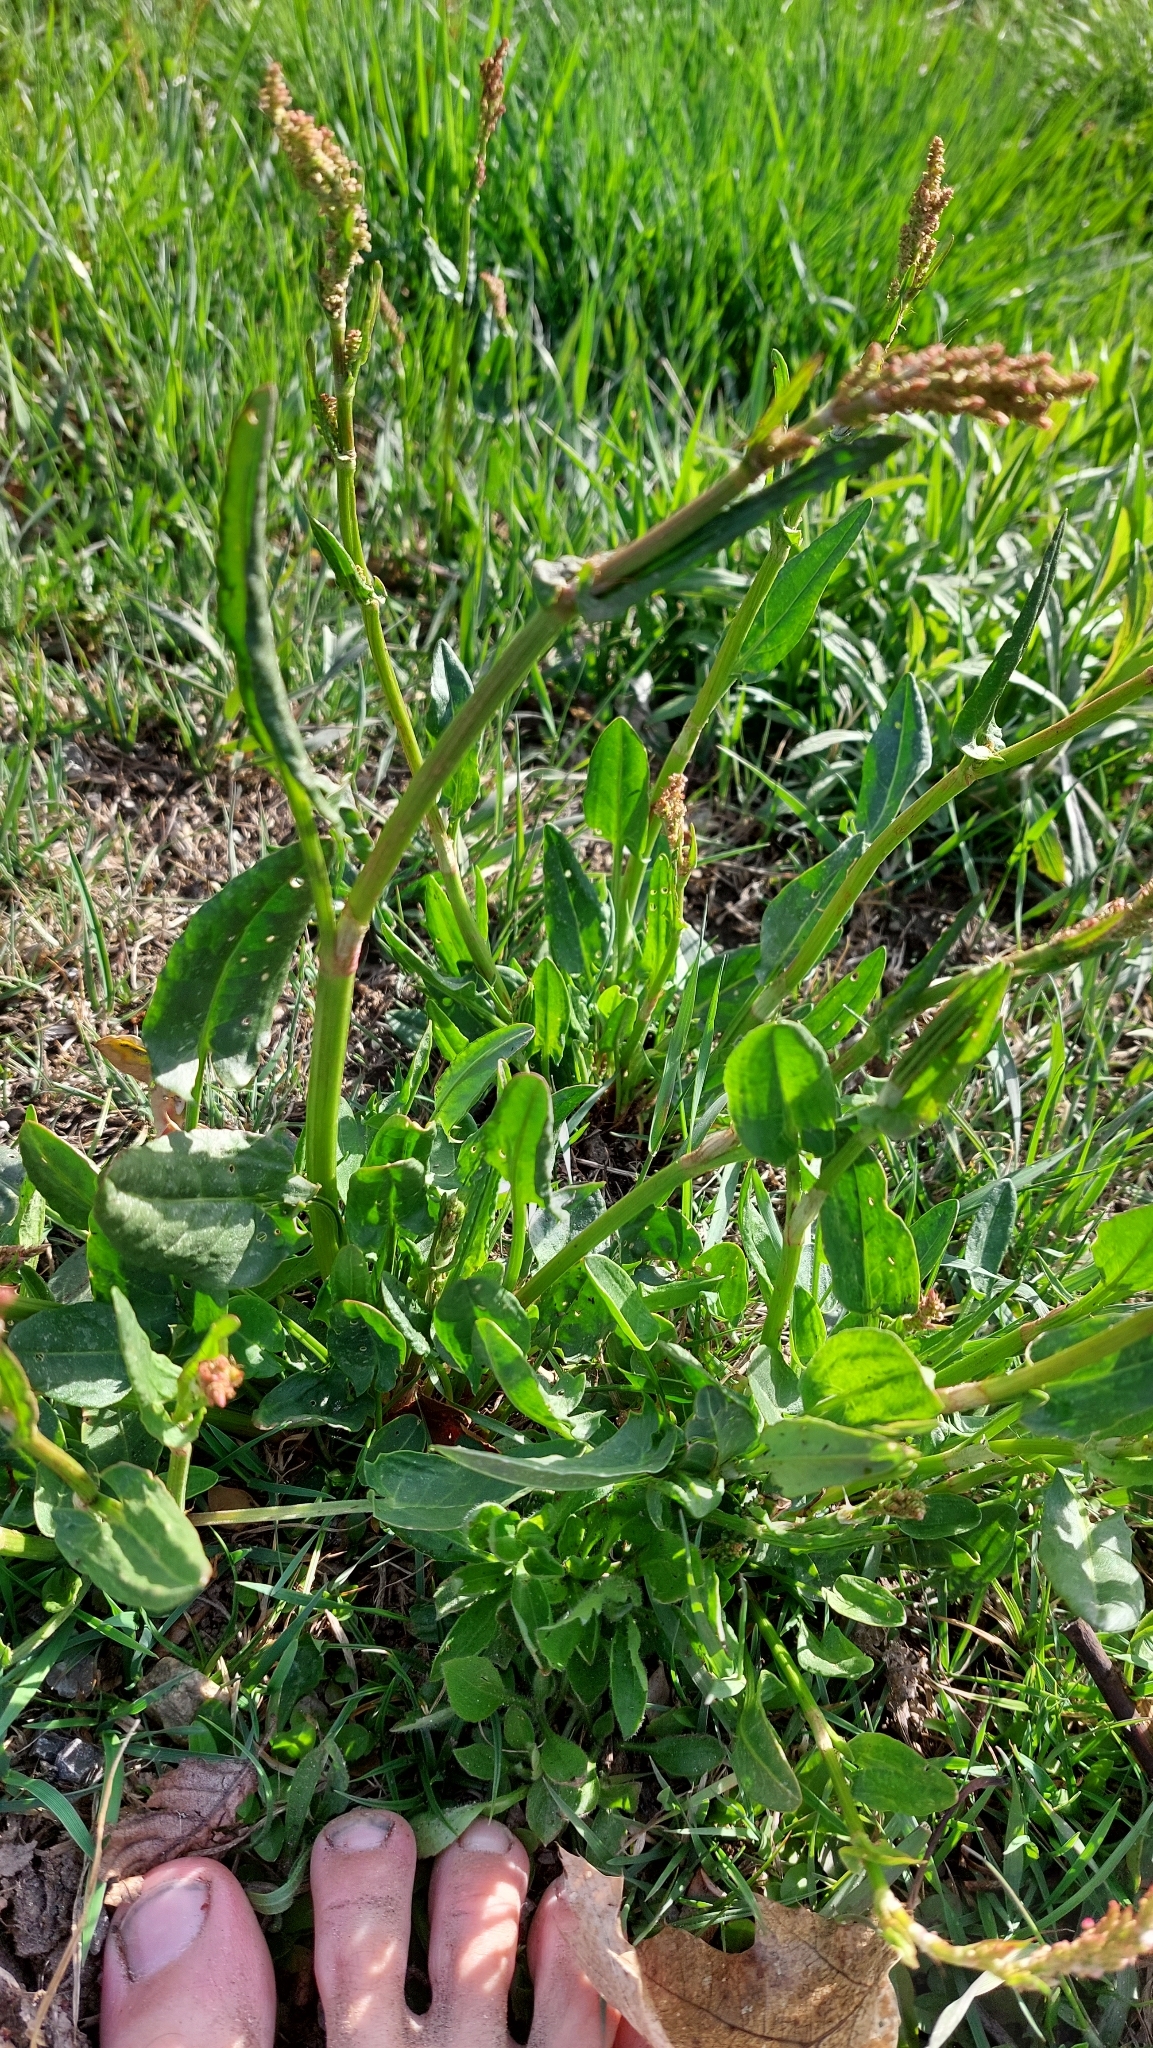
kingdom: Plantae
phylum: Tracheophyta
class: Magnoliopsida
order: Caryophyllales
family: Polygonaceae
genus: Rumex
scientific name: Rumex acetosa
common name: Garden sorrel
